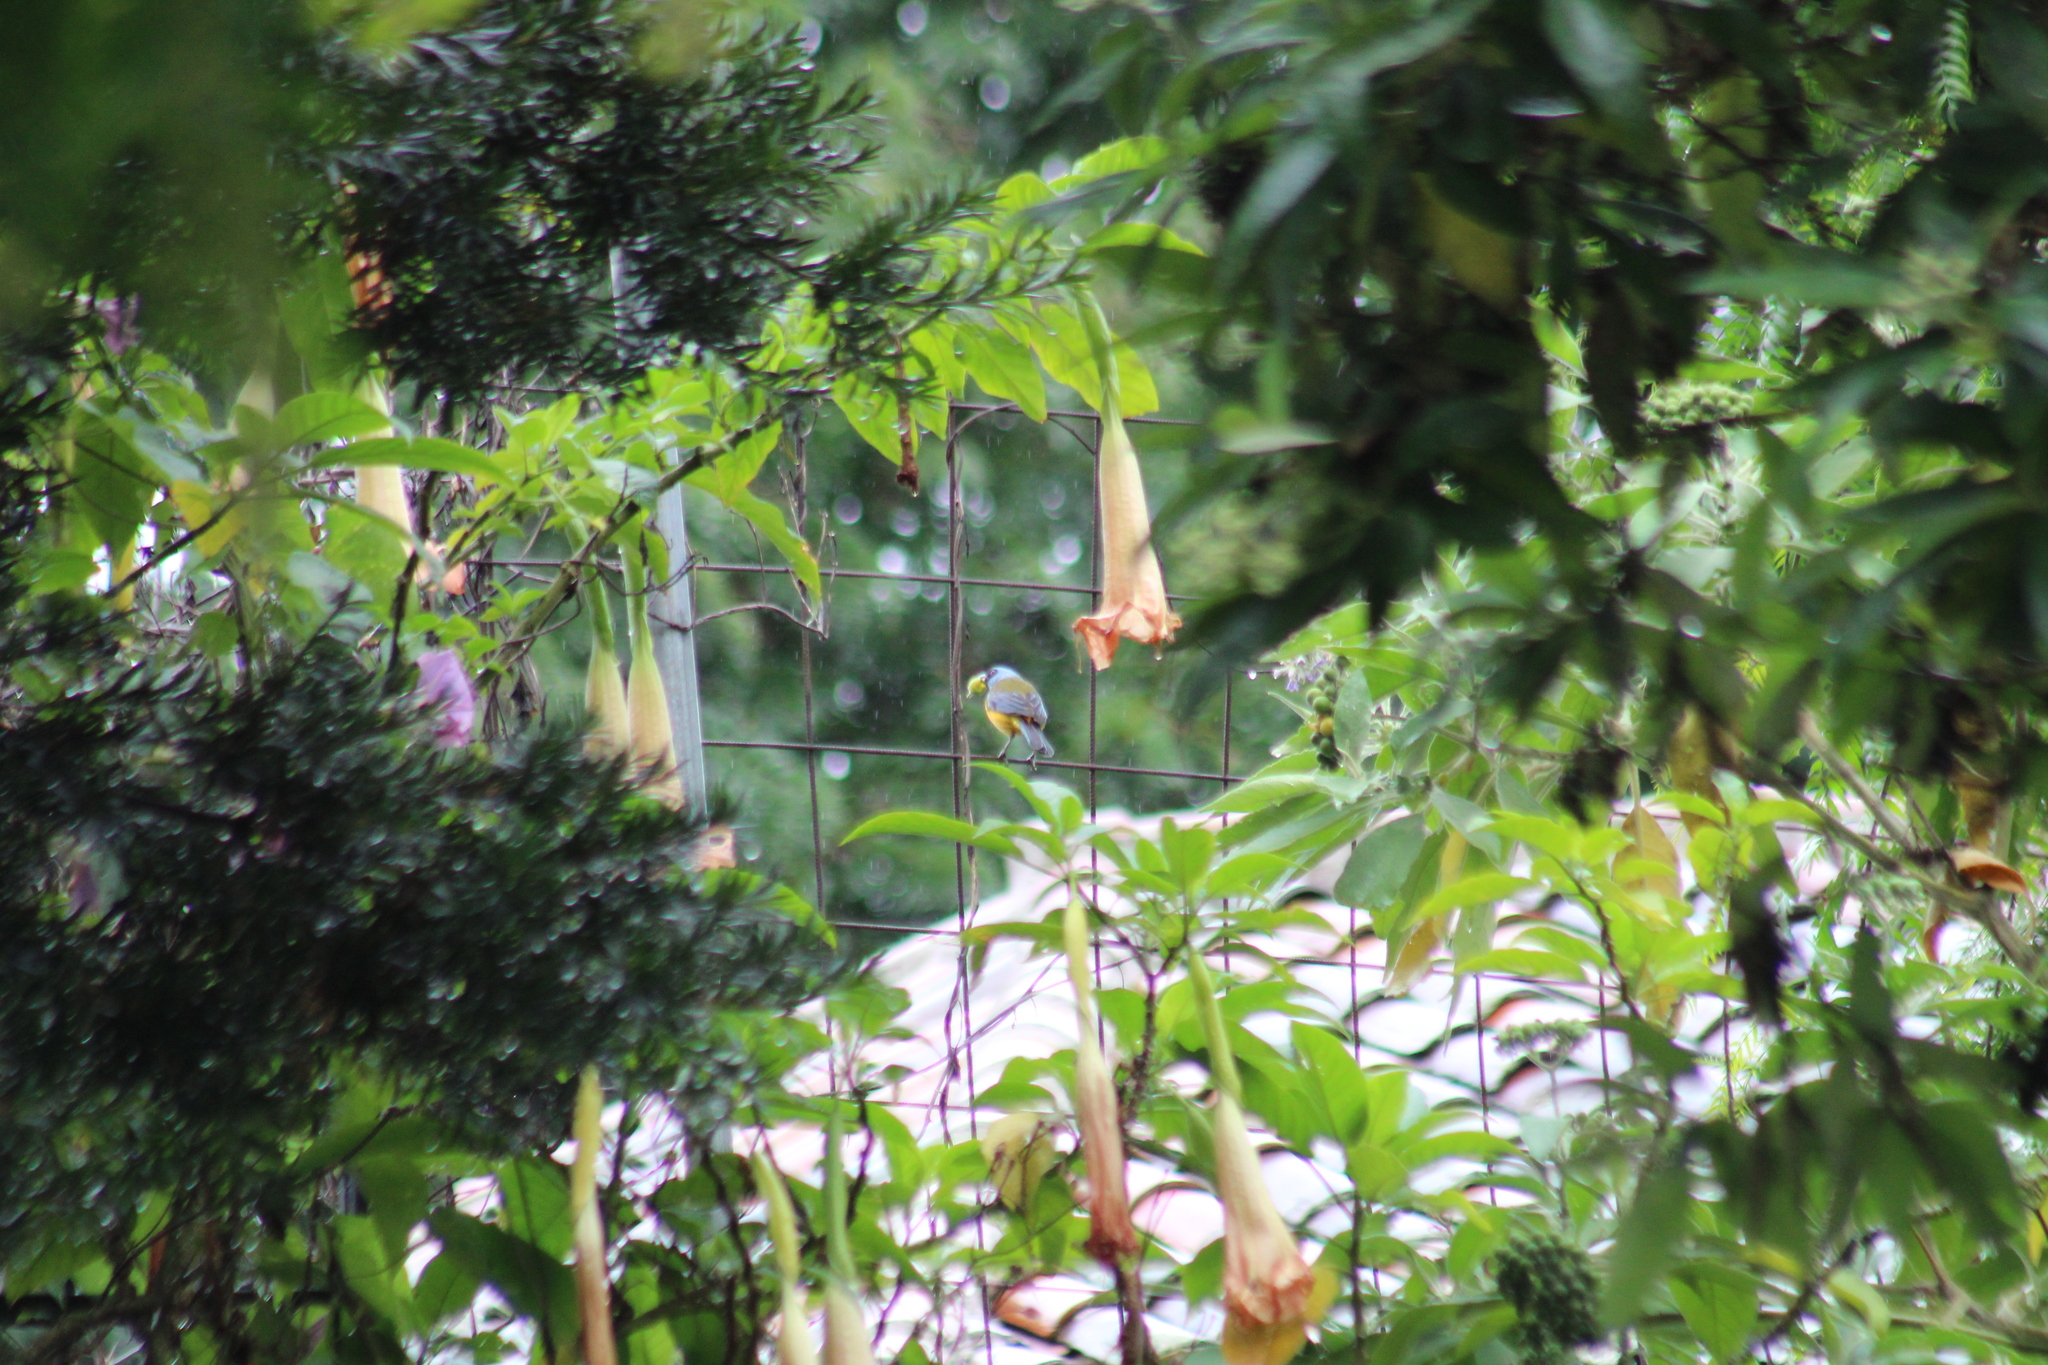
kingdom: Animalia
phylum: Chordata
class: Aves
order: Passeriformes
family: Thraupidae
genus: Rauenia
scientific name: Rauenia bonariensis
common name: Blue-and-yellow tanager
